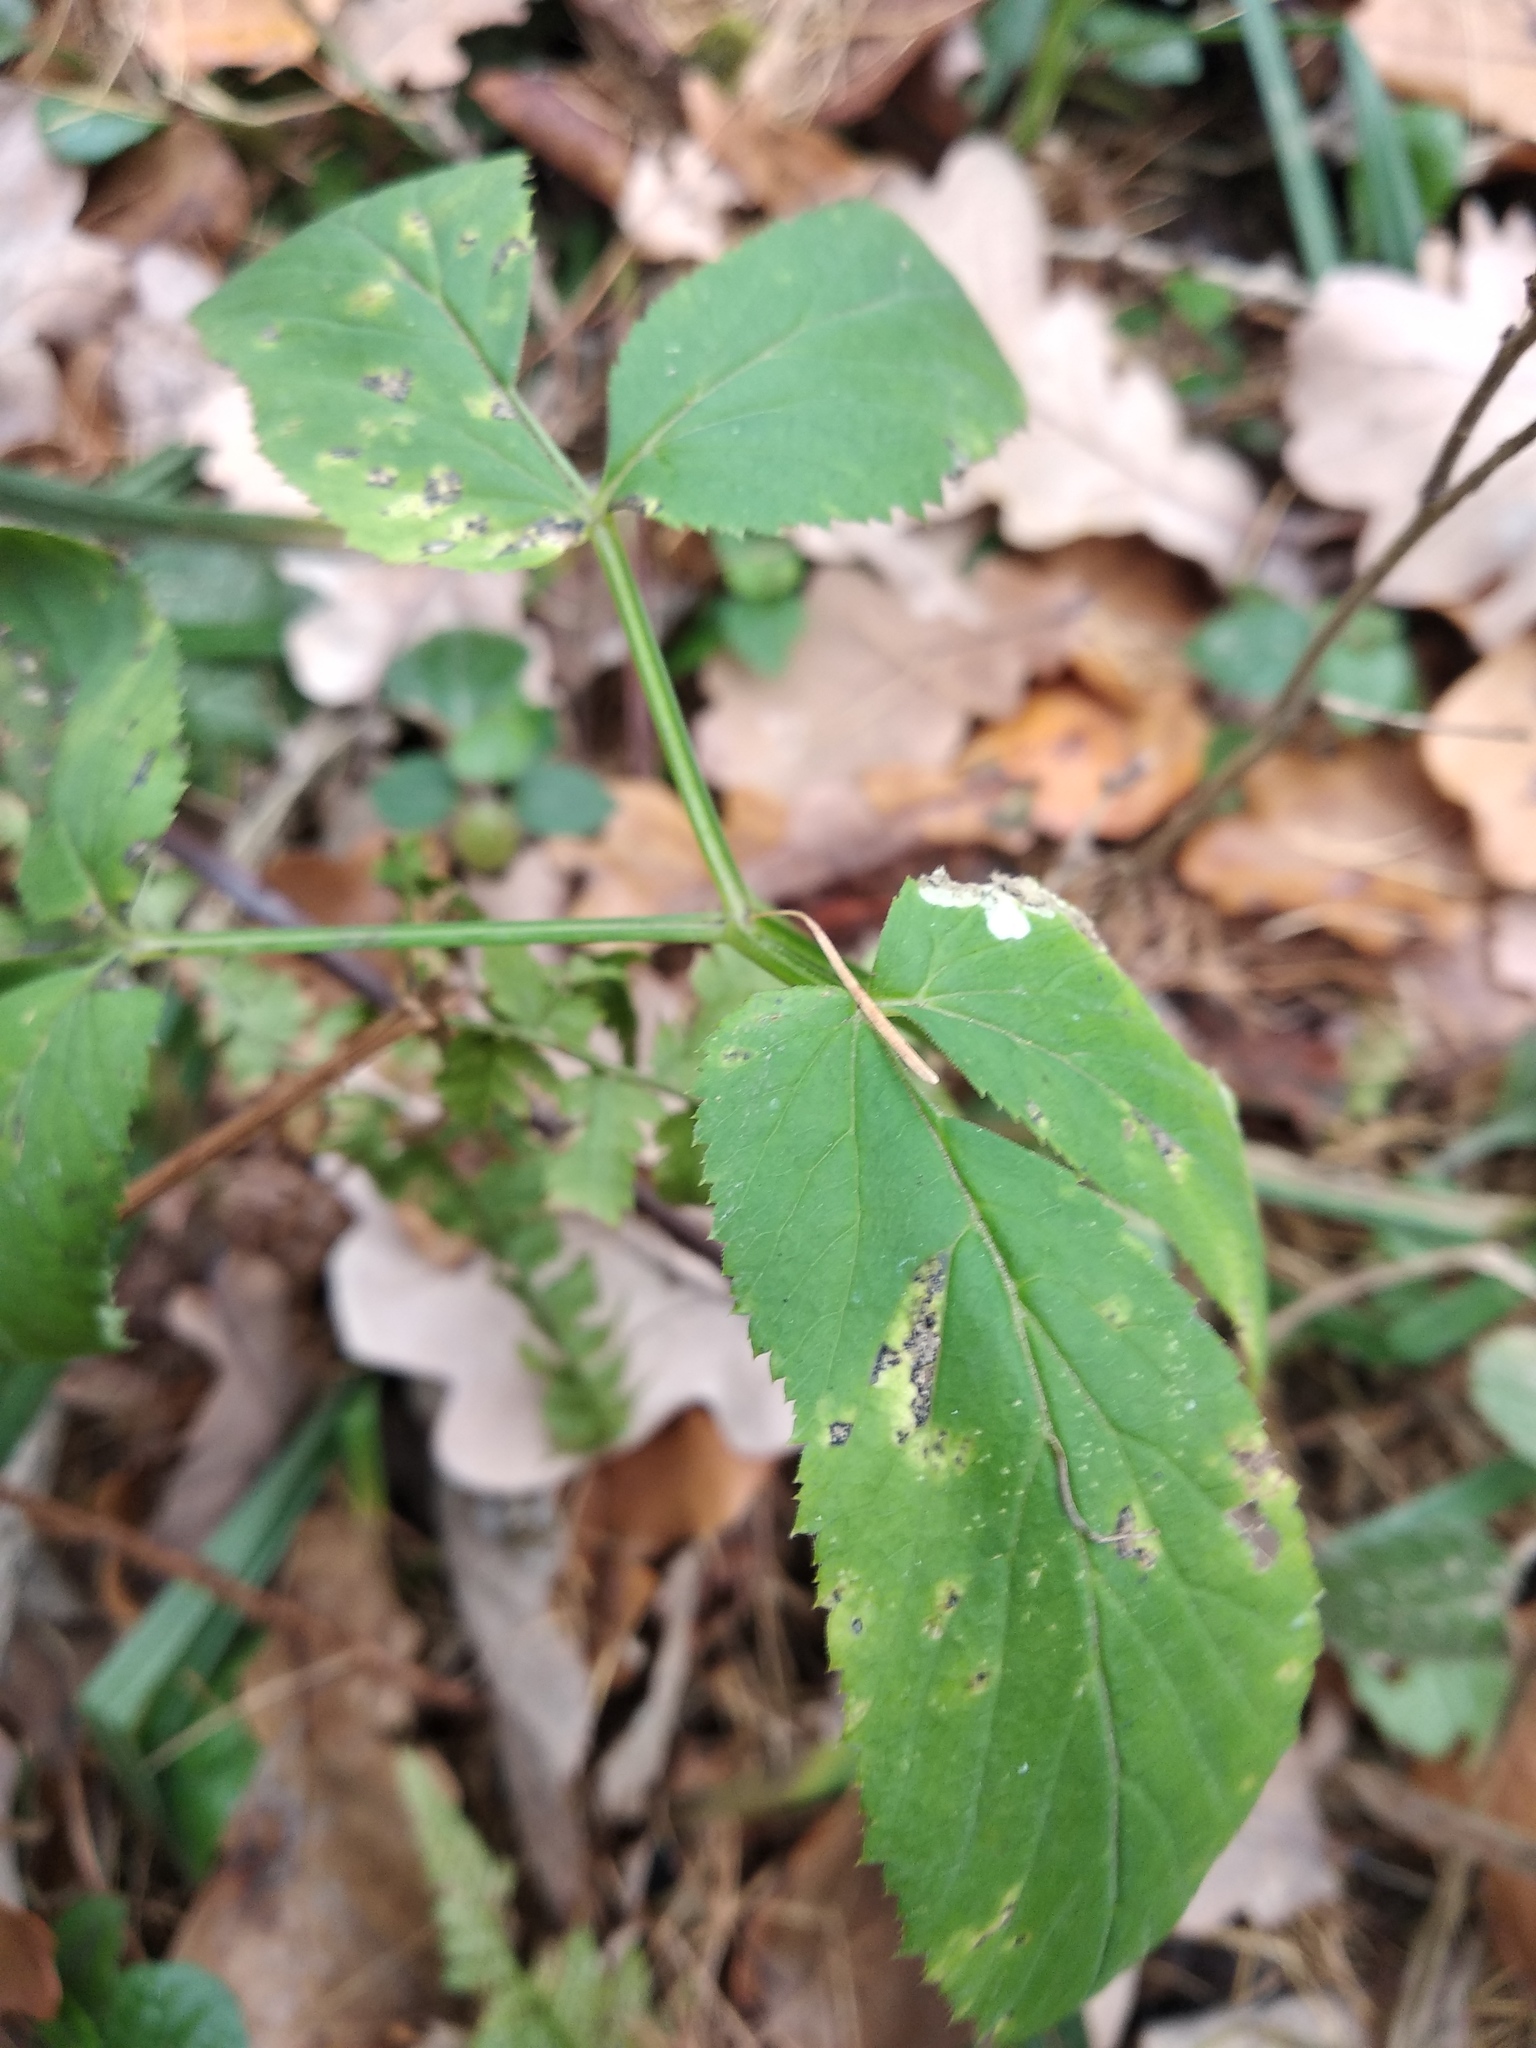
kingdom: Plantae
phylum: Tracheophyta
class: Magnoliopsida
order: Apiales
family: Apiaceae
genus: Aegopodium
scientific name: Aegopodium podagraria
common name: Ground-elder
